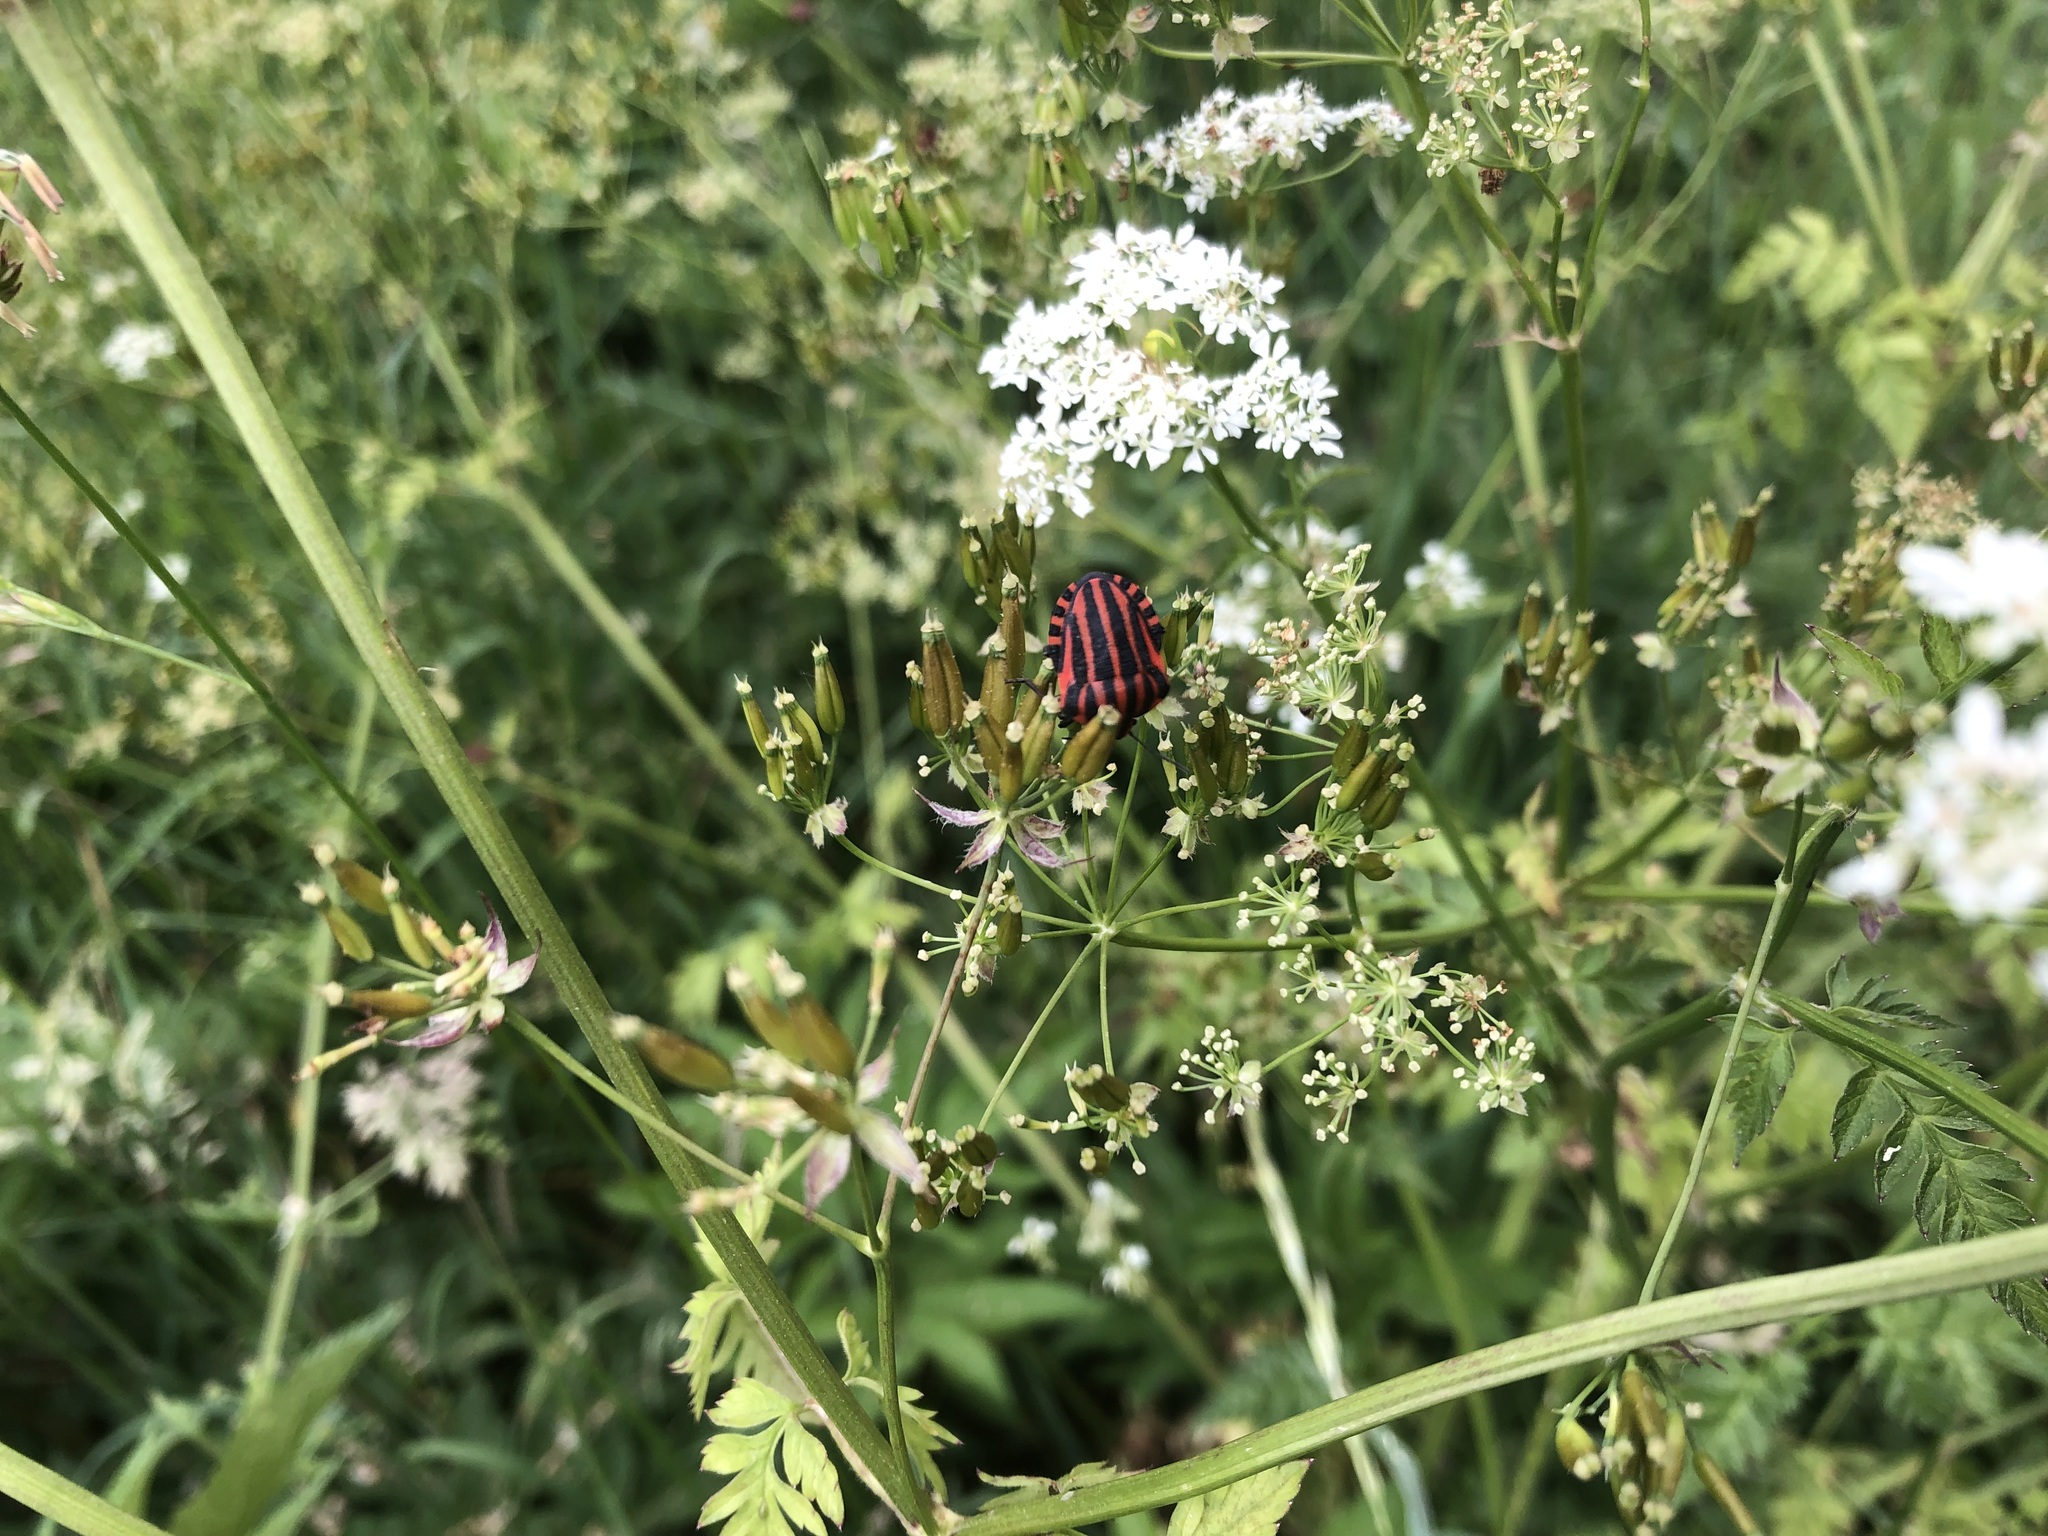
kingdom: Animalia
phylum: Arthropoda
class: Insecta
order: Hemiptera
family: Pentatomidae
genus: Graphosoma
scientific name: Graphosoma italicum
